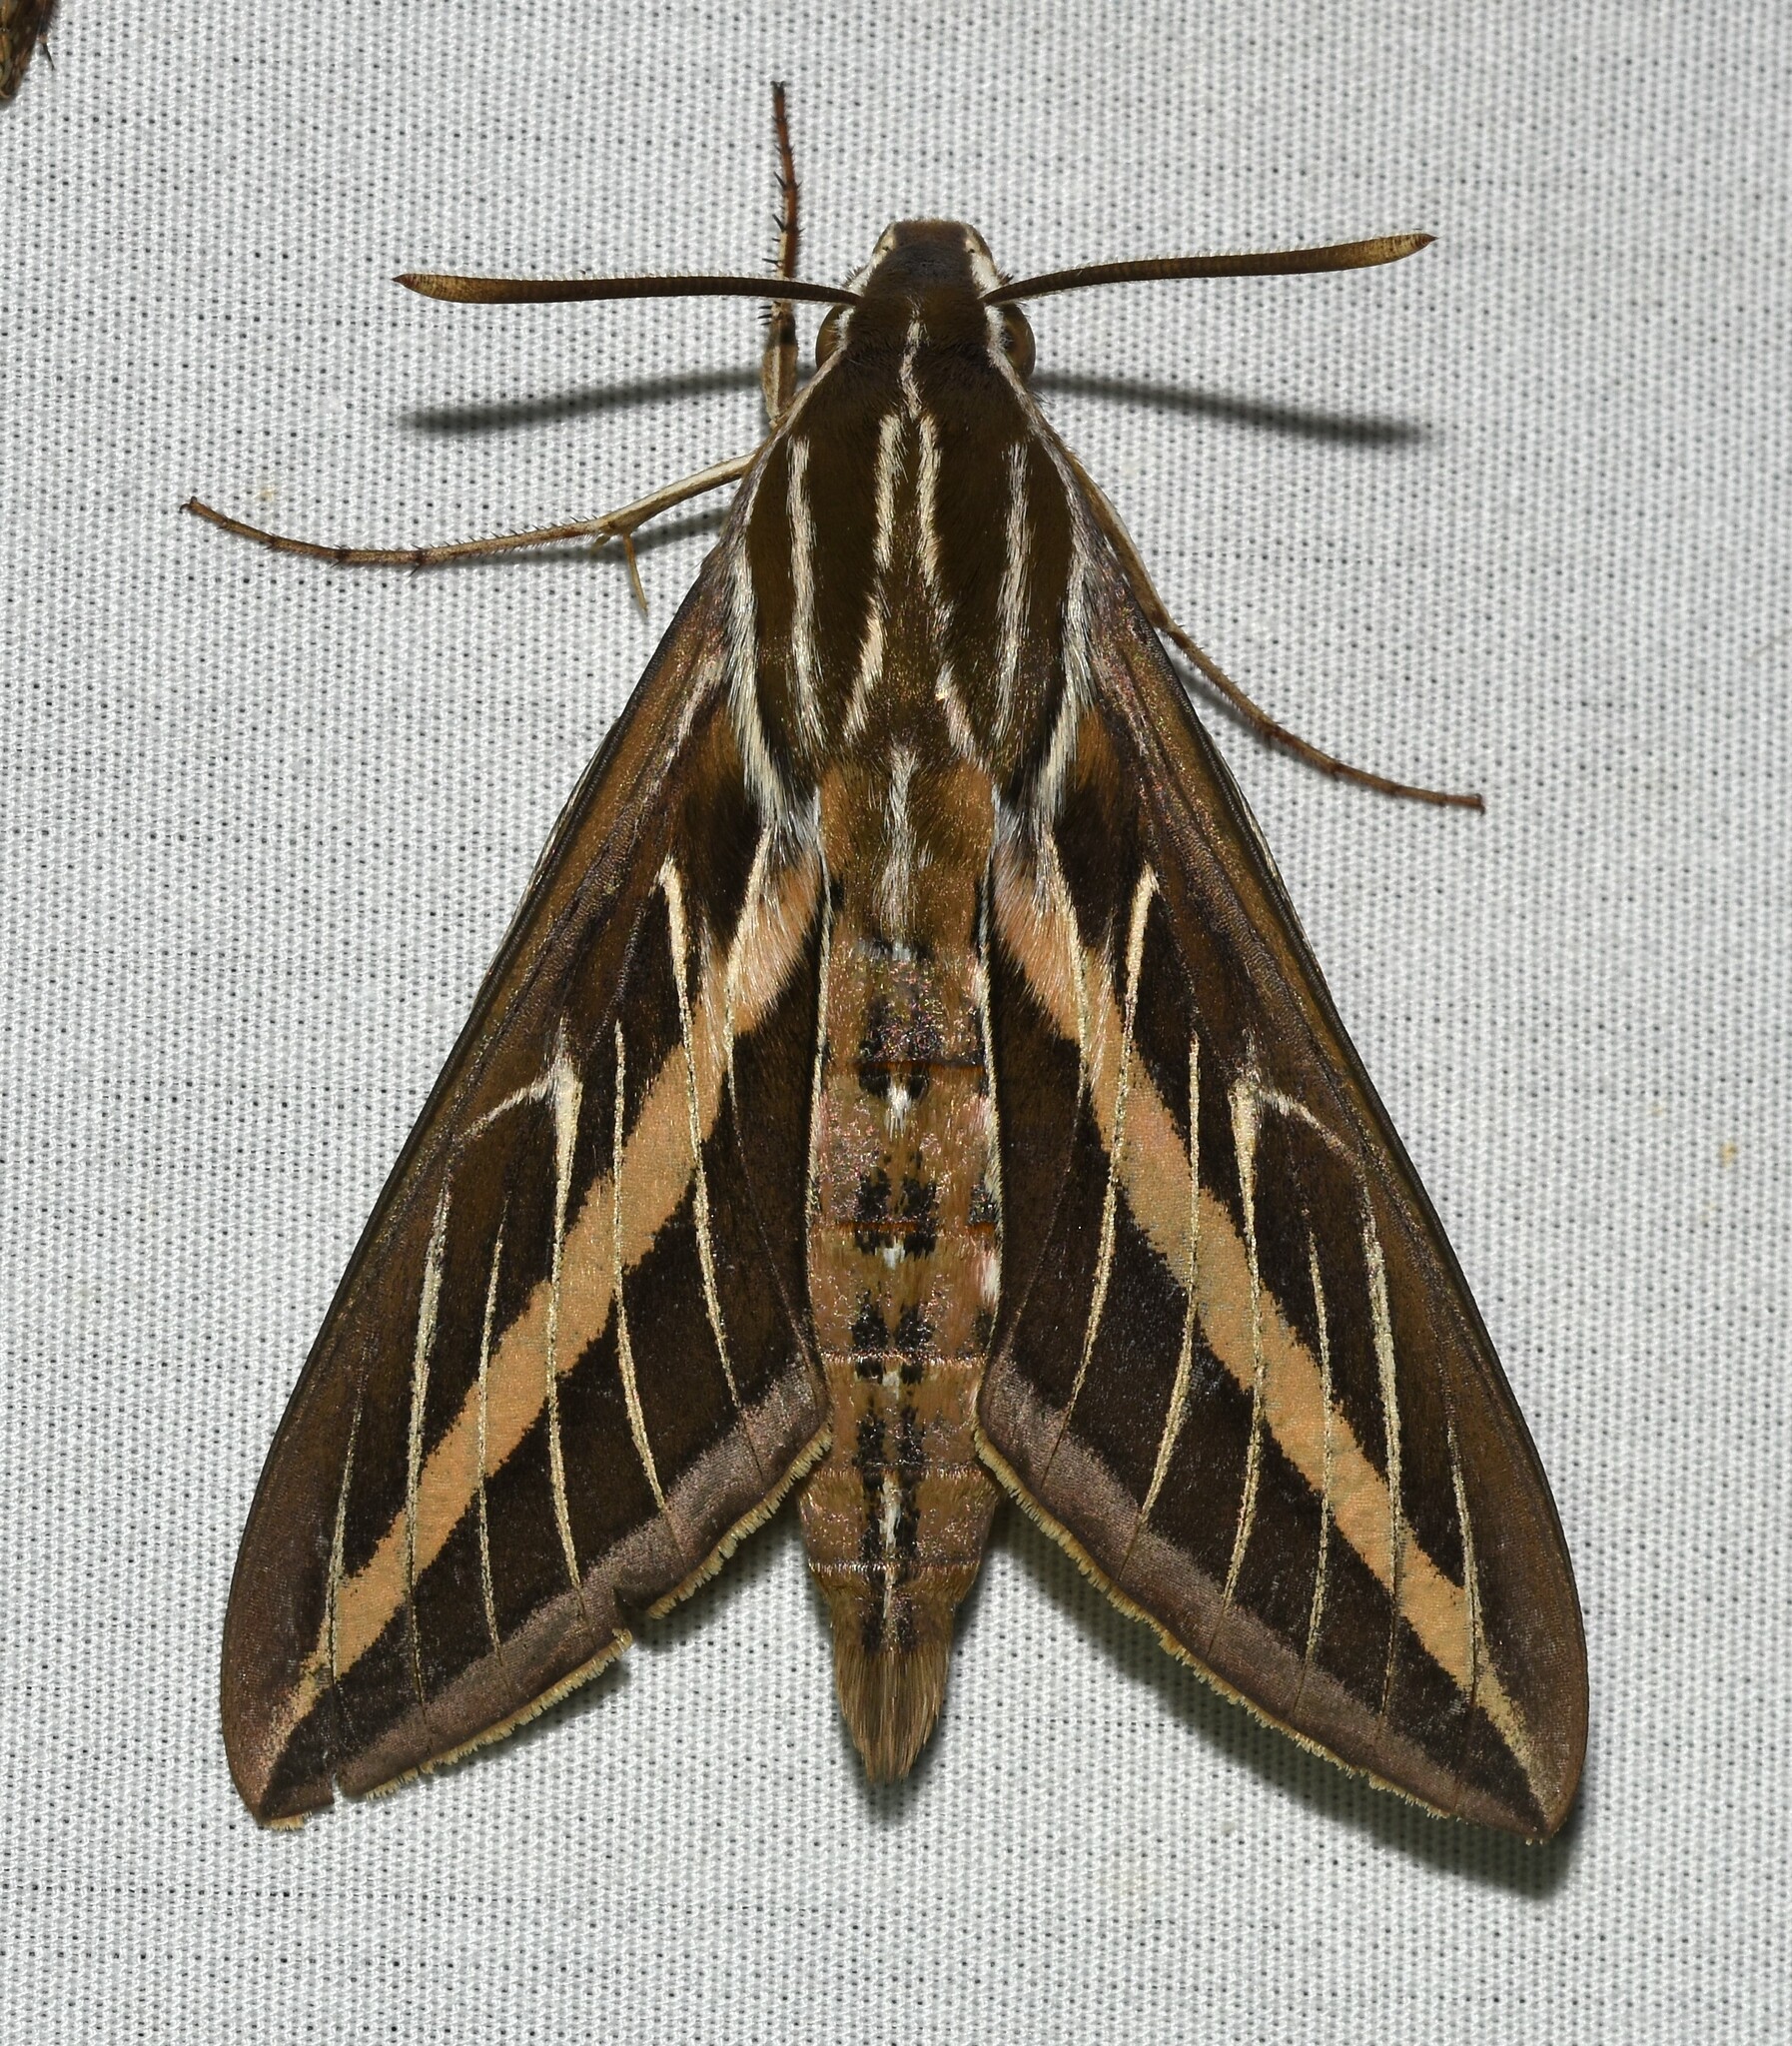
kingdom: Animalia
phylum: Arthropoda
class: Insecta
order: Lepidoptera
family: Sphingidae
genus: Hyles
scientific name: Hyles lineata
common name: White-lined sphinx
